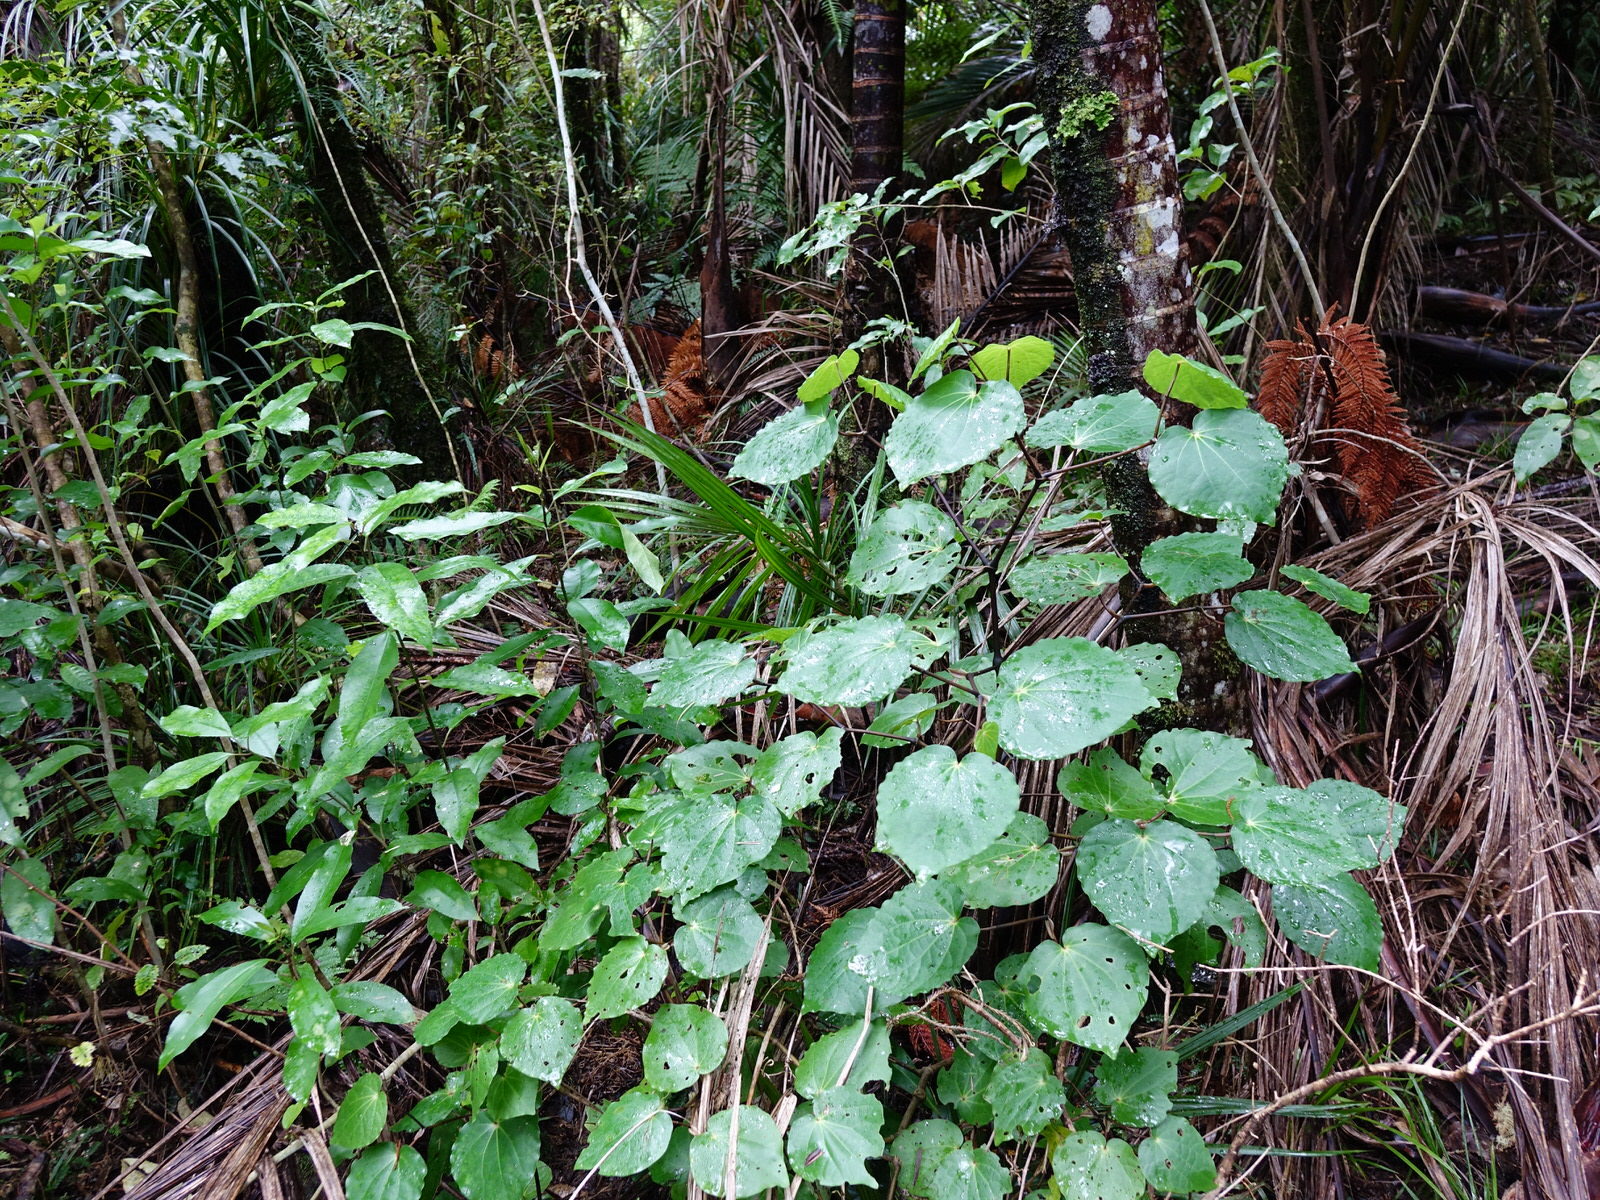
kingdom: Plantae
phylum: Tracheophyta
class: Magnoliopsida
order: Piperales
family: Piperaceae
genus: Macropiper
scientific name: Macropiper excelsum
